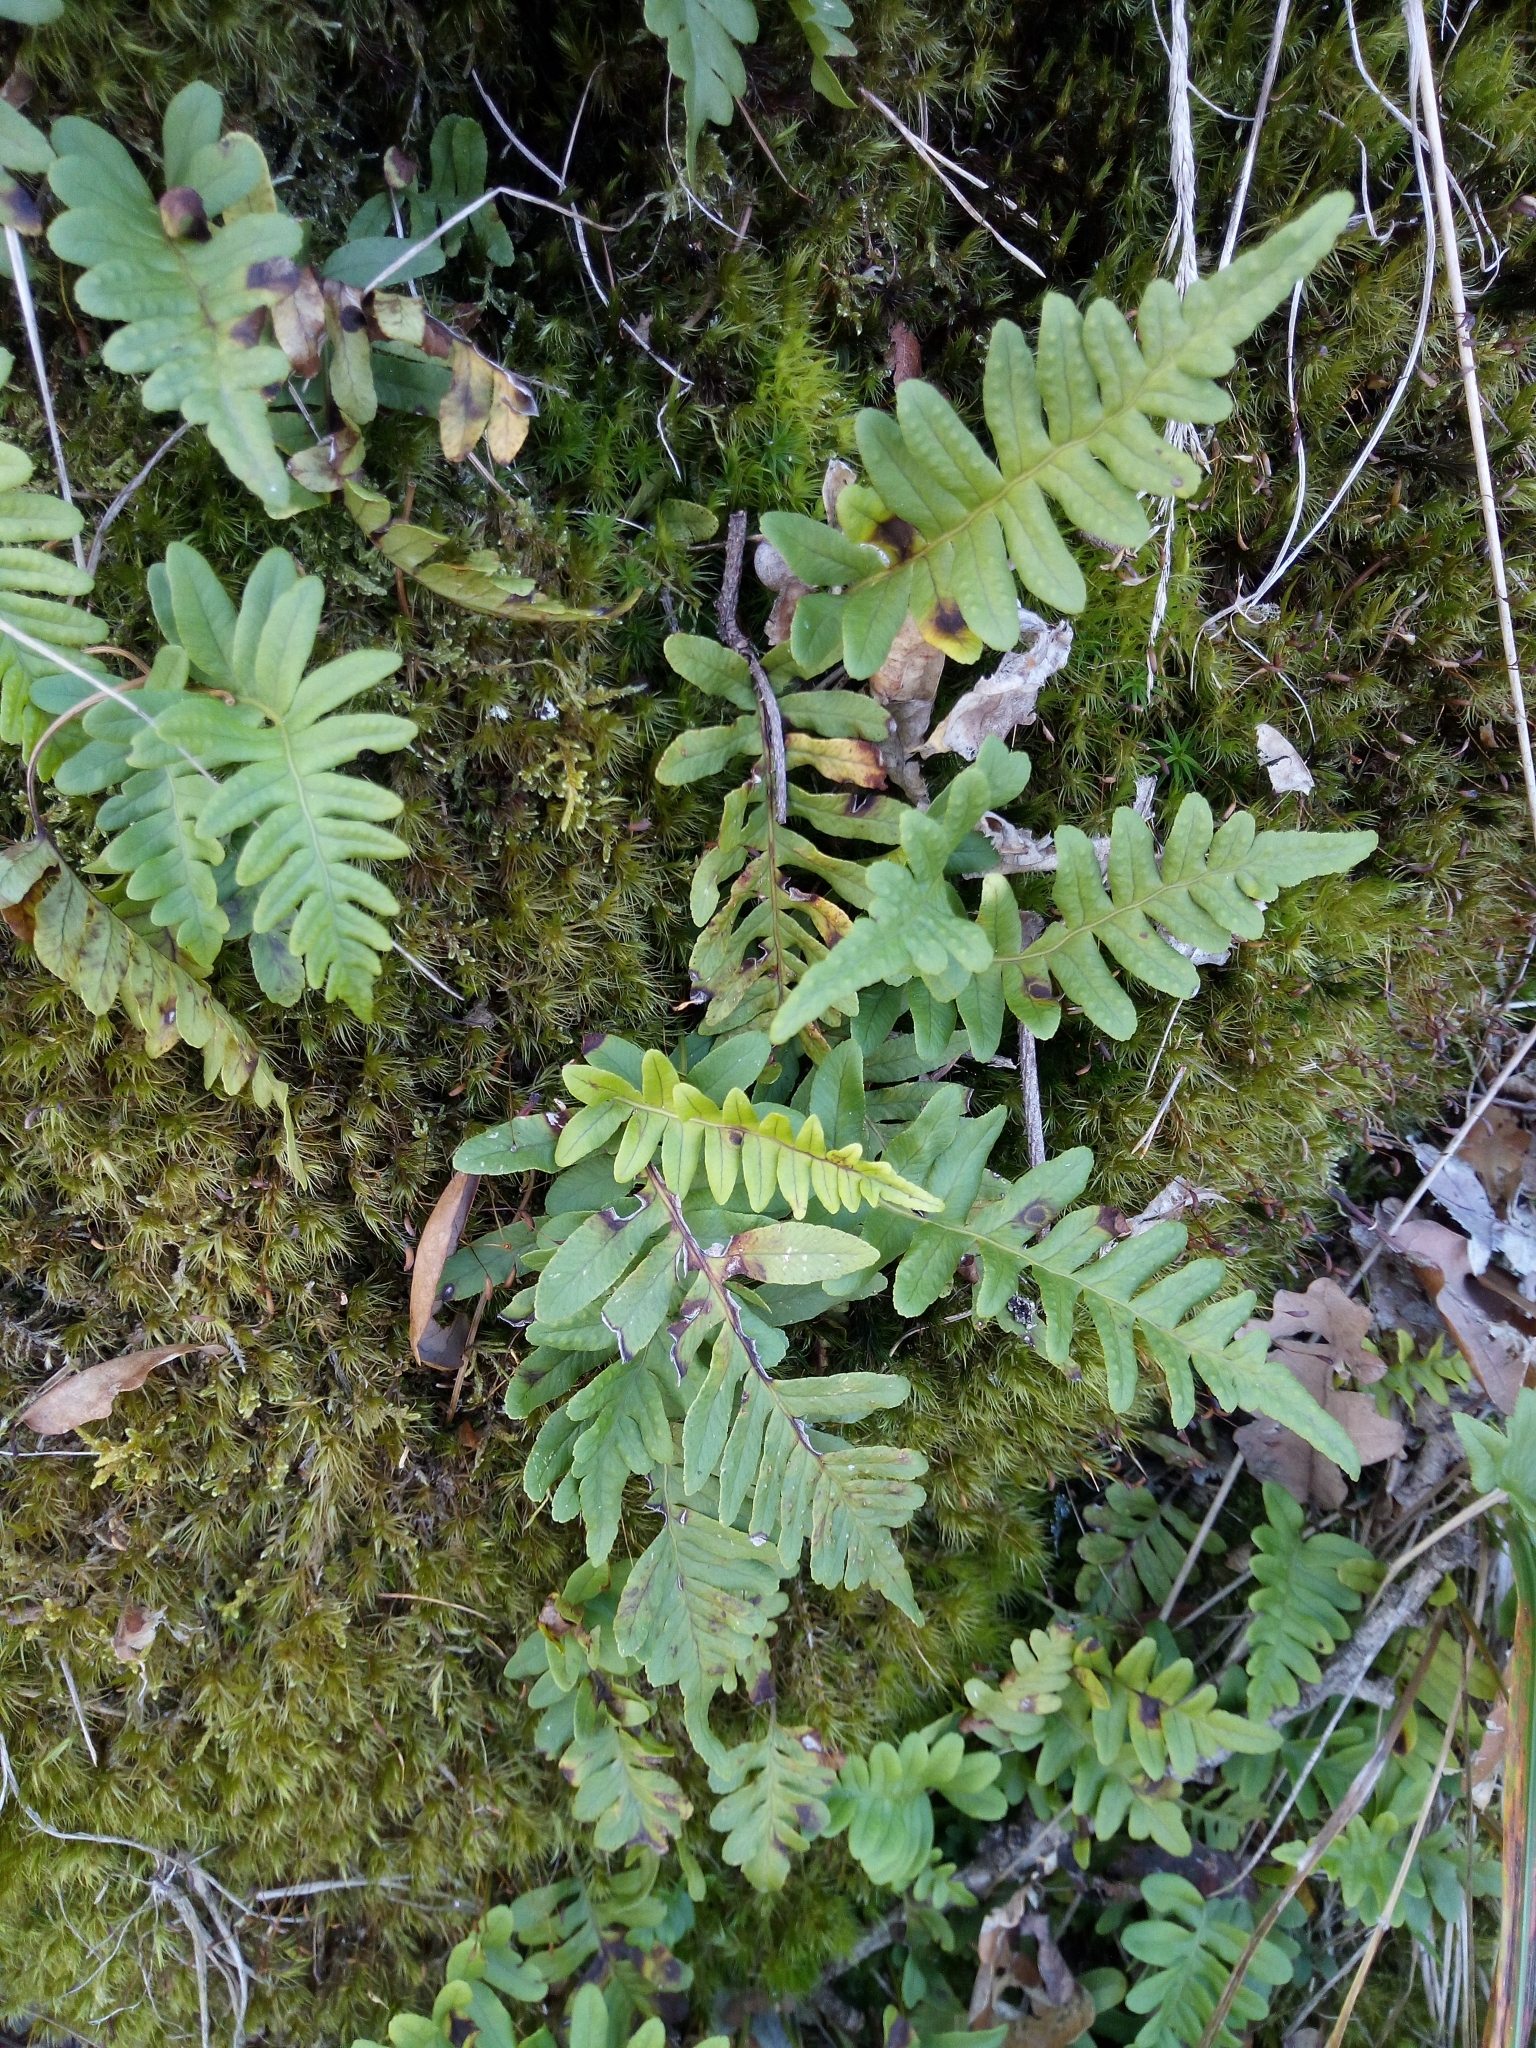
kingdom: Plantae
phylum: Tracheophyta
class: Polypodiopsida
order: Polypodiales
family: Polypodiaceae
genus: Polypodium
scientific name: Polypodium vulgare
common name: Common polypody
